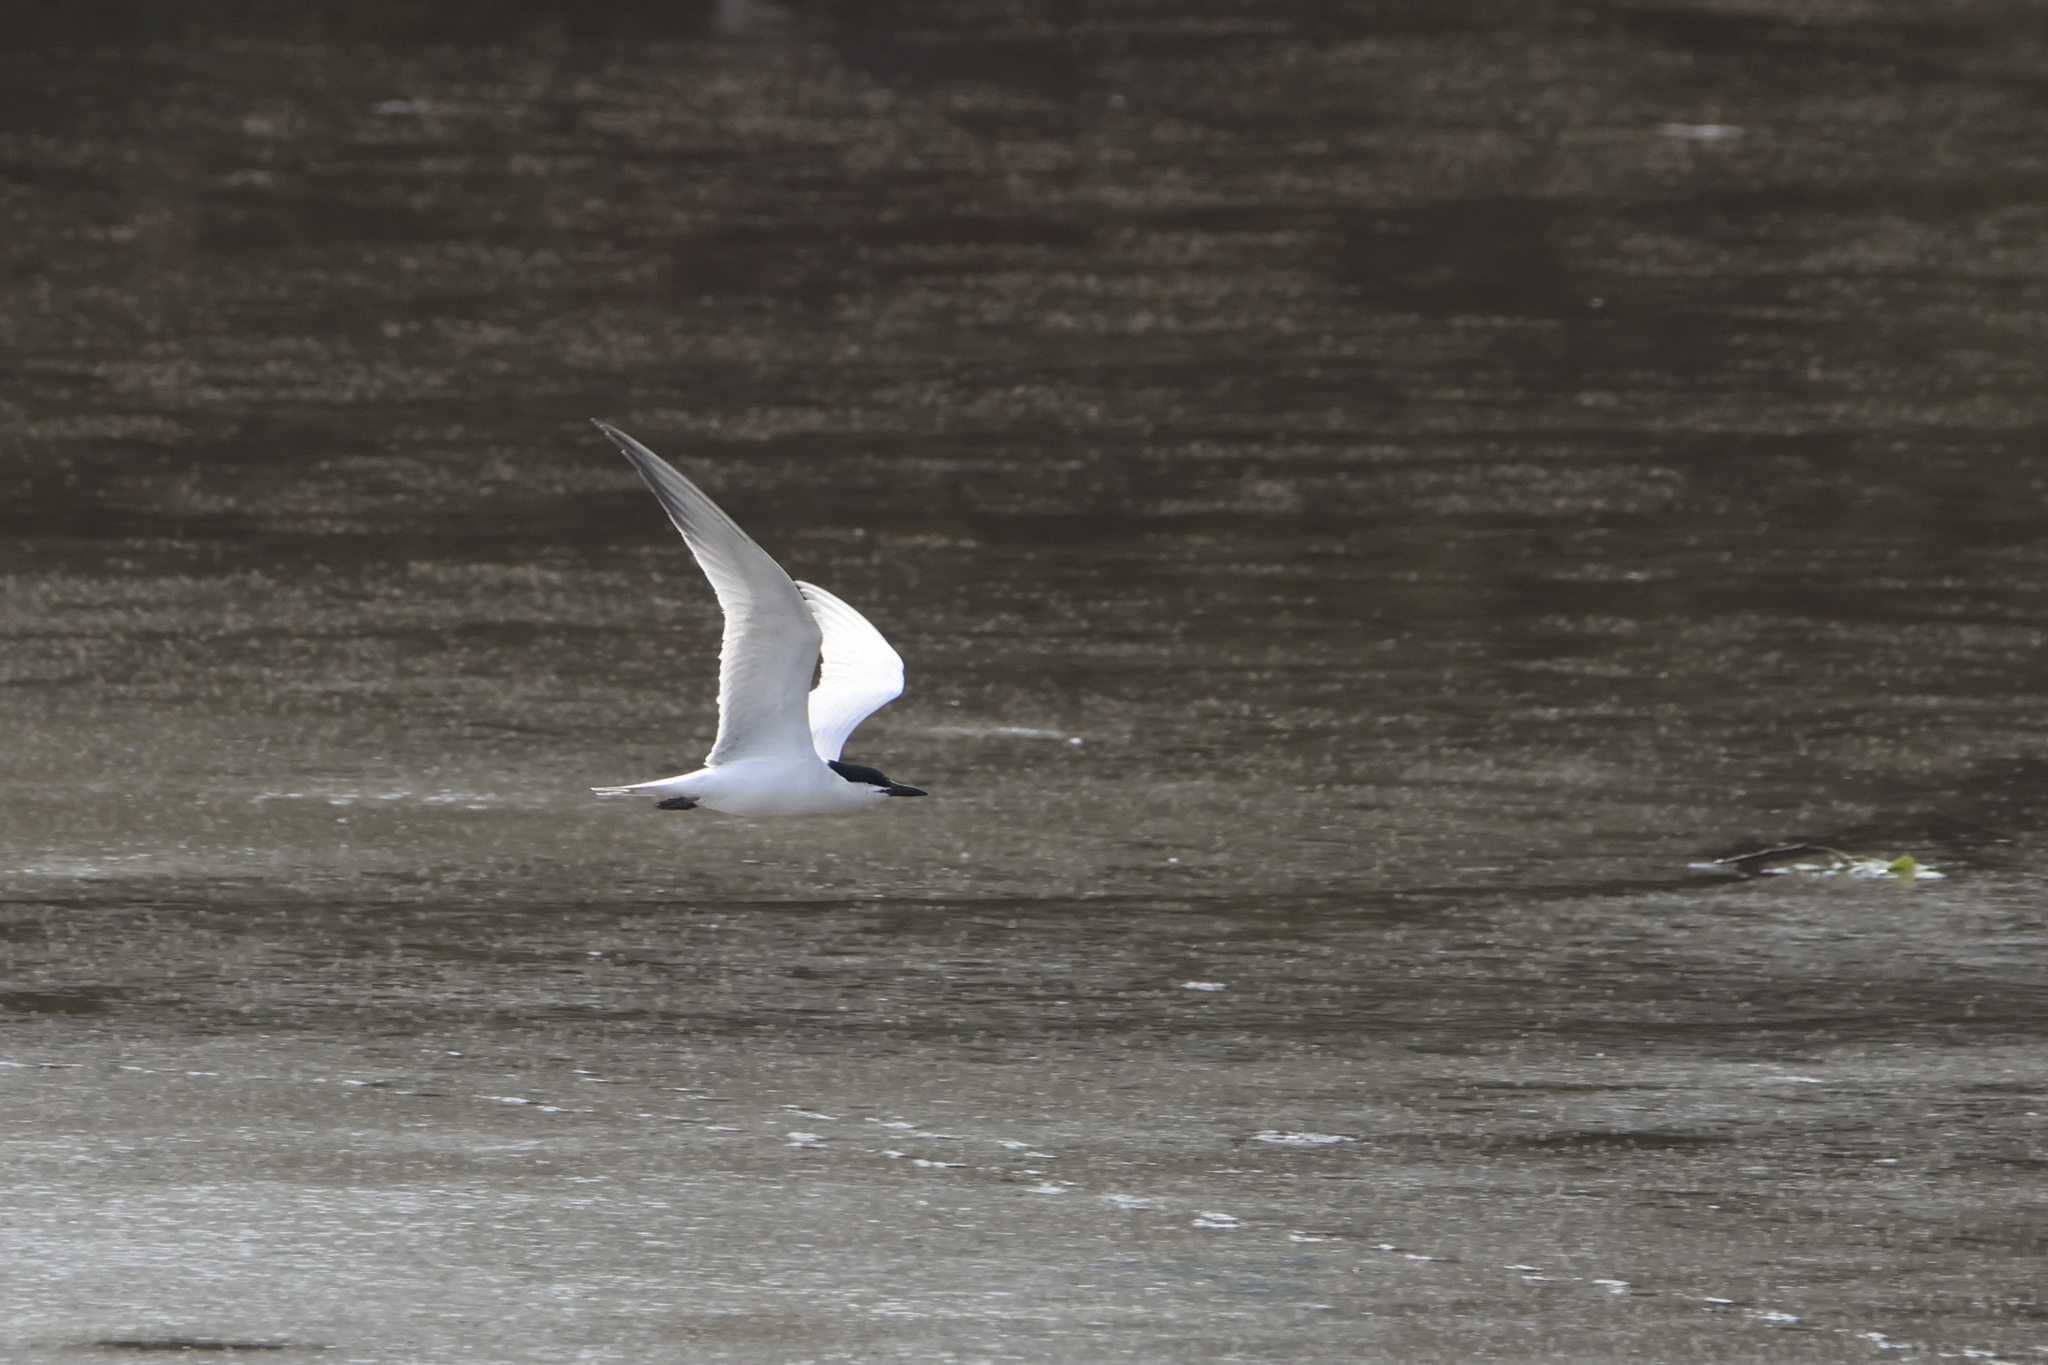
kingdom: Animalia
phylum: Chordata
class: Aves
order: Charadriiformes
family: Laridae
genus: Gelochelidon
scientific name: Gelochelidon nilotica
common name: Gull-billed tern
